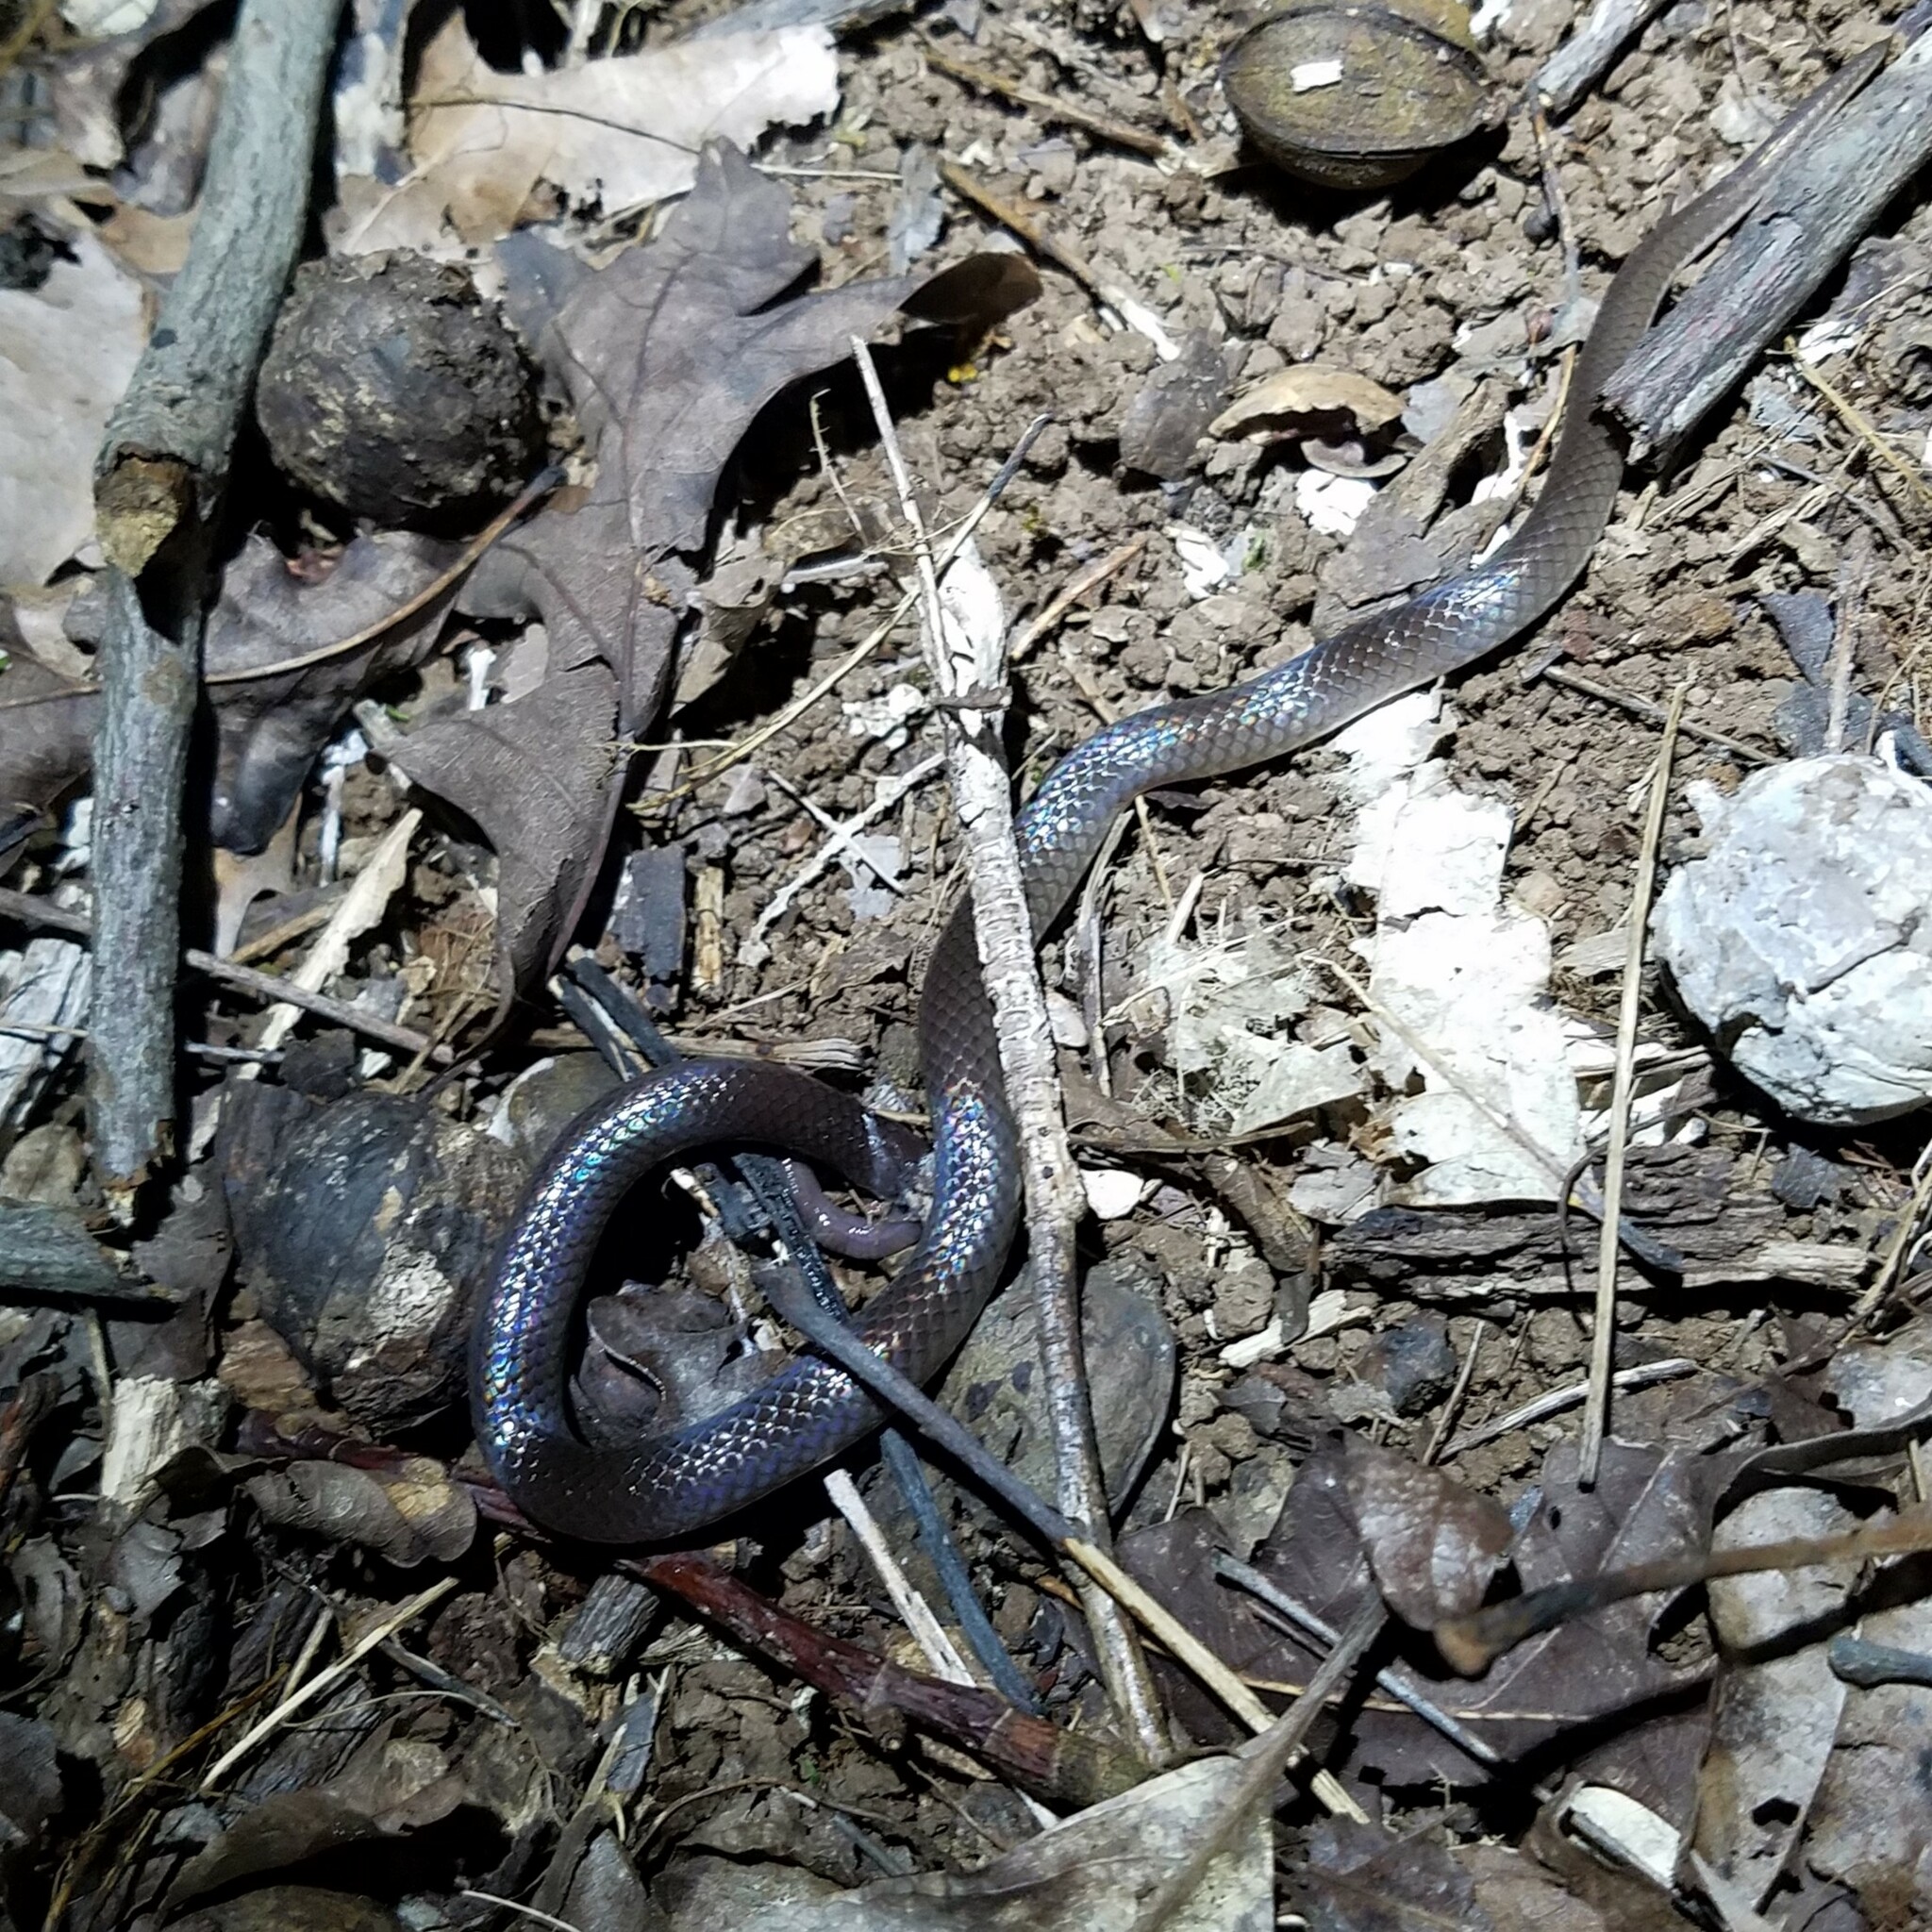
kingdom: Animalia
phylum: Chordata
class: Squamata
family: Colubridae
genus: Carphophis
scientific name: Carphophis amoenus
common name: Eastern worm snake
